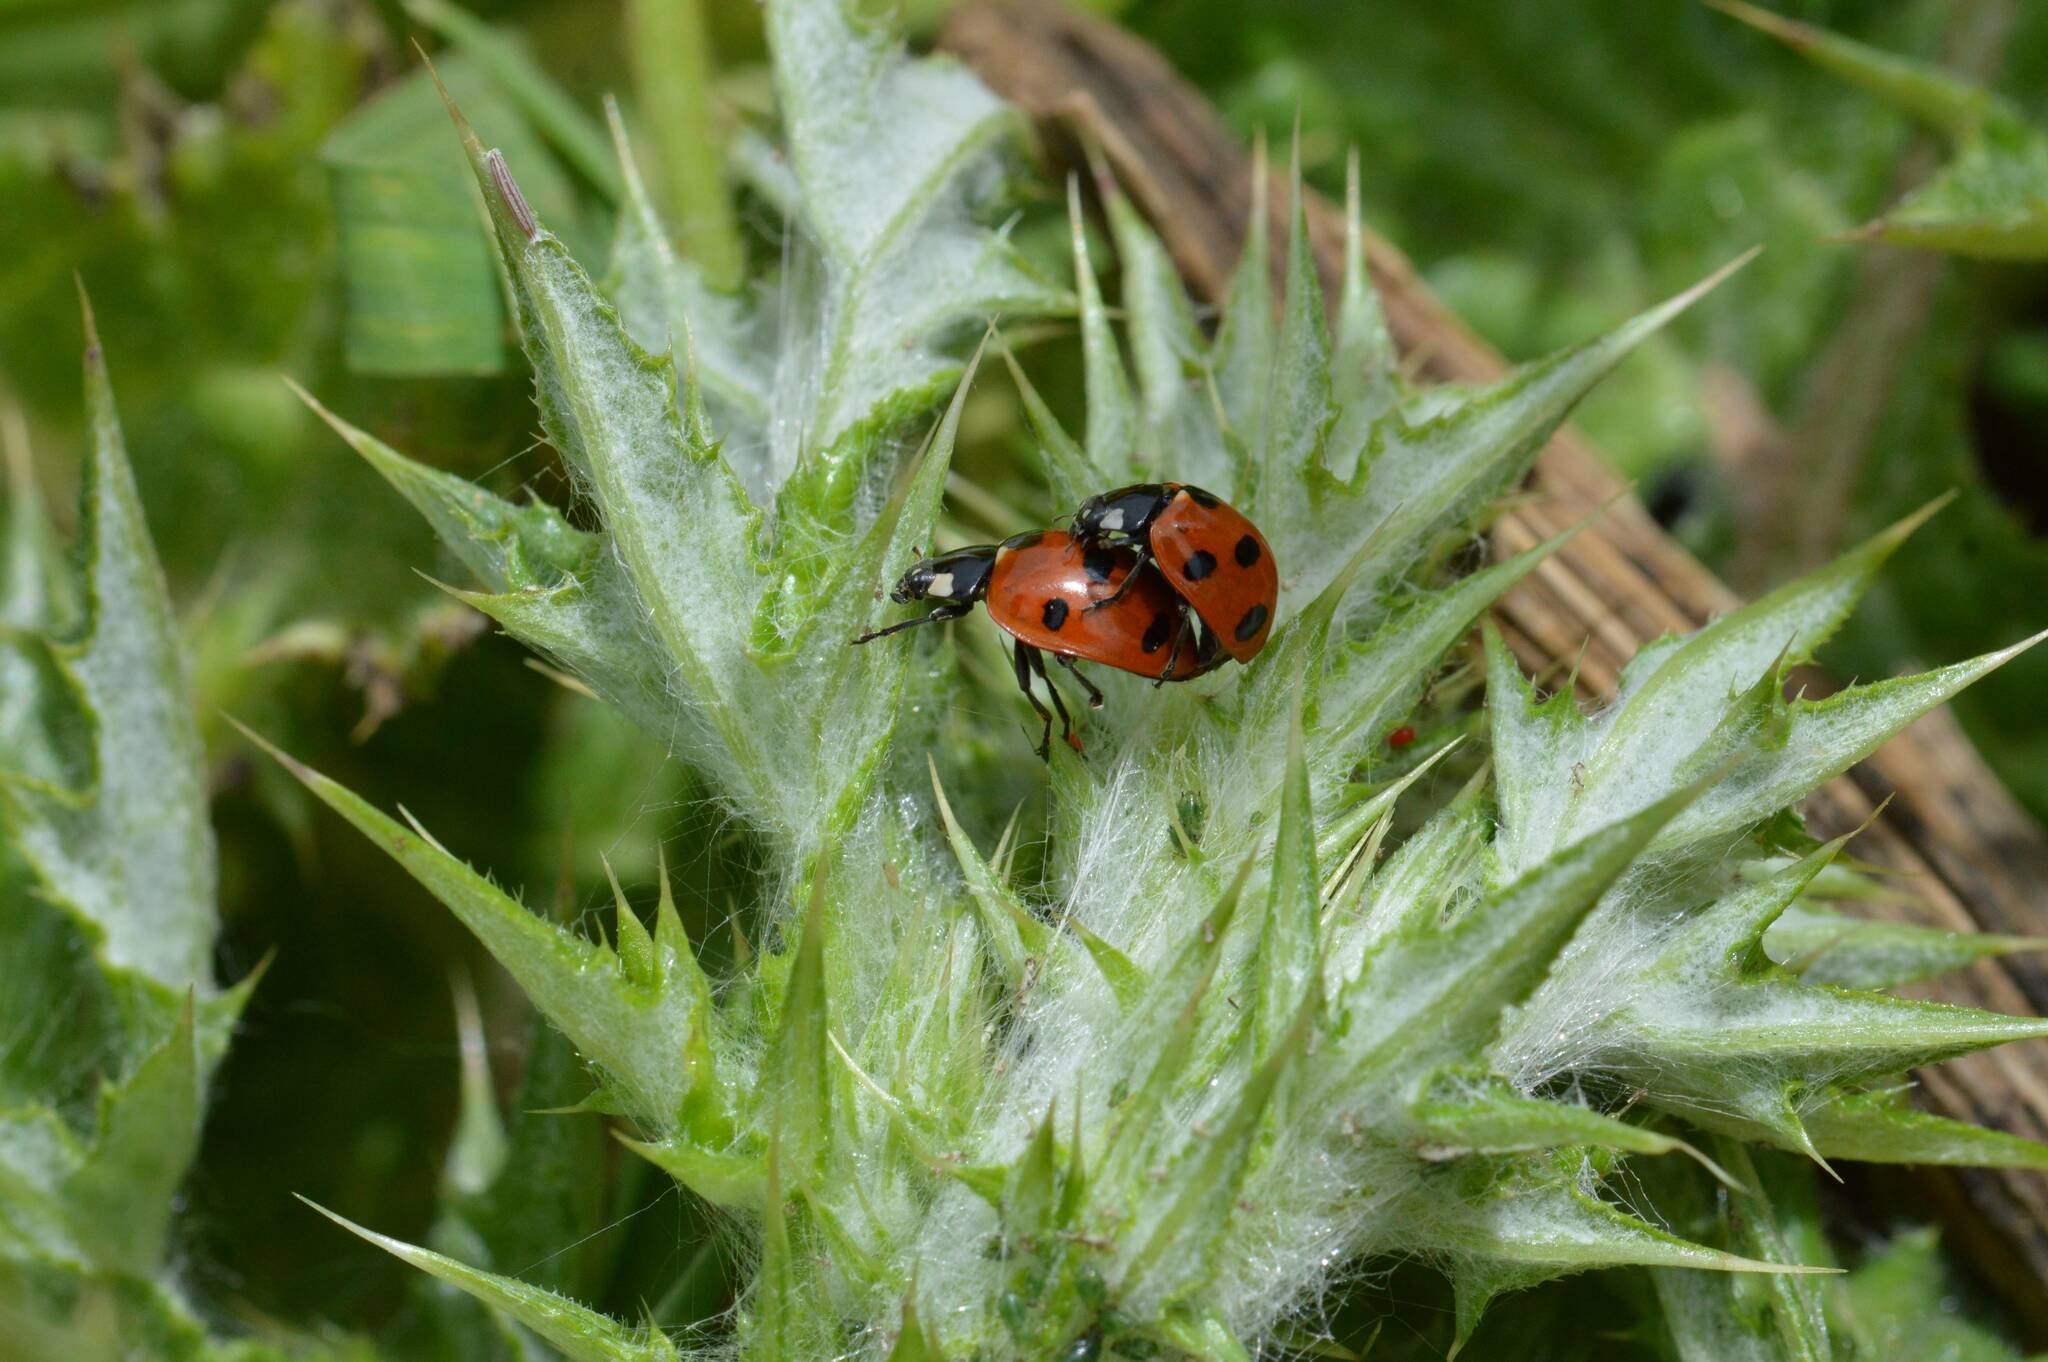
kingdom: Animalia
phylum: Arthropoda
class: Insecta
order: Coleoptera
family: Coccinellidae
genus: Coccinella
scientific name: Coccinella algerica
